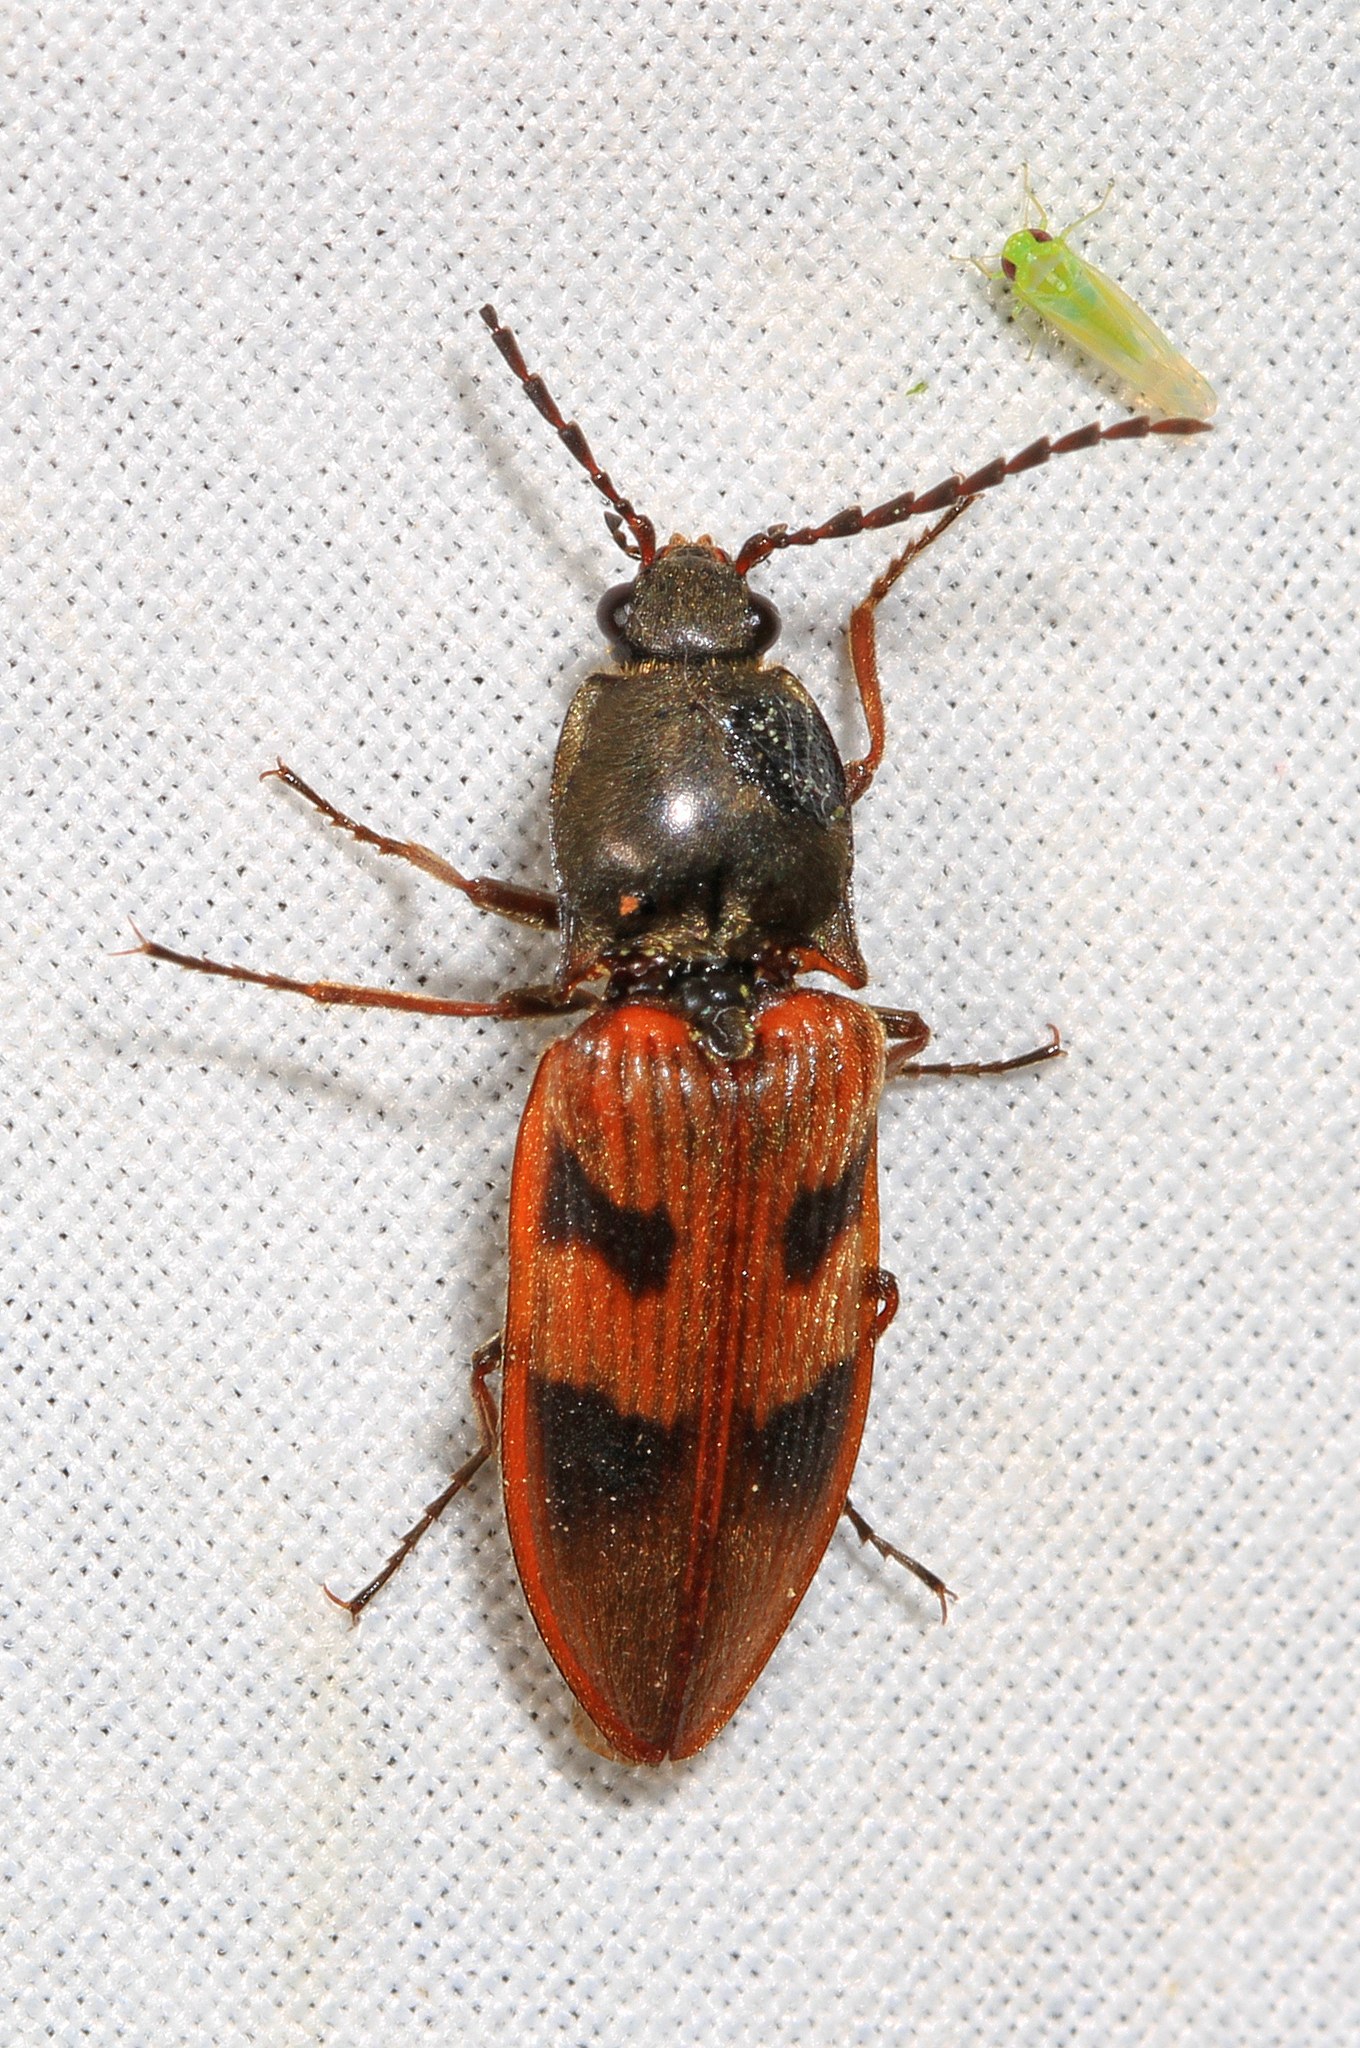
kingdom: Animalia
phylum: Arthropoda
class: Insecta
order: Coleoptera
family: Elateridae
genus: Stropenron
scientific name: Stropenron nigricollis
